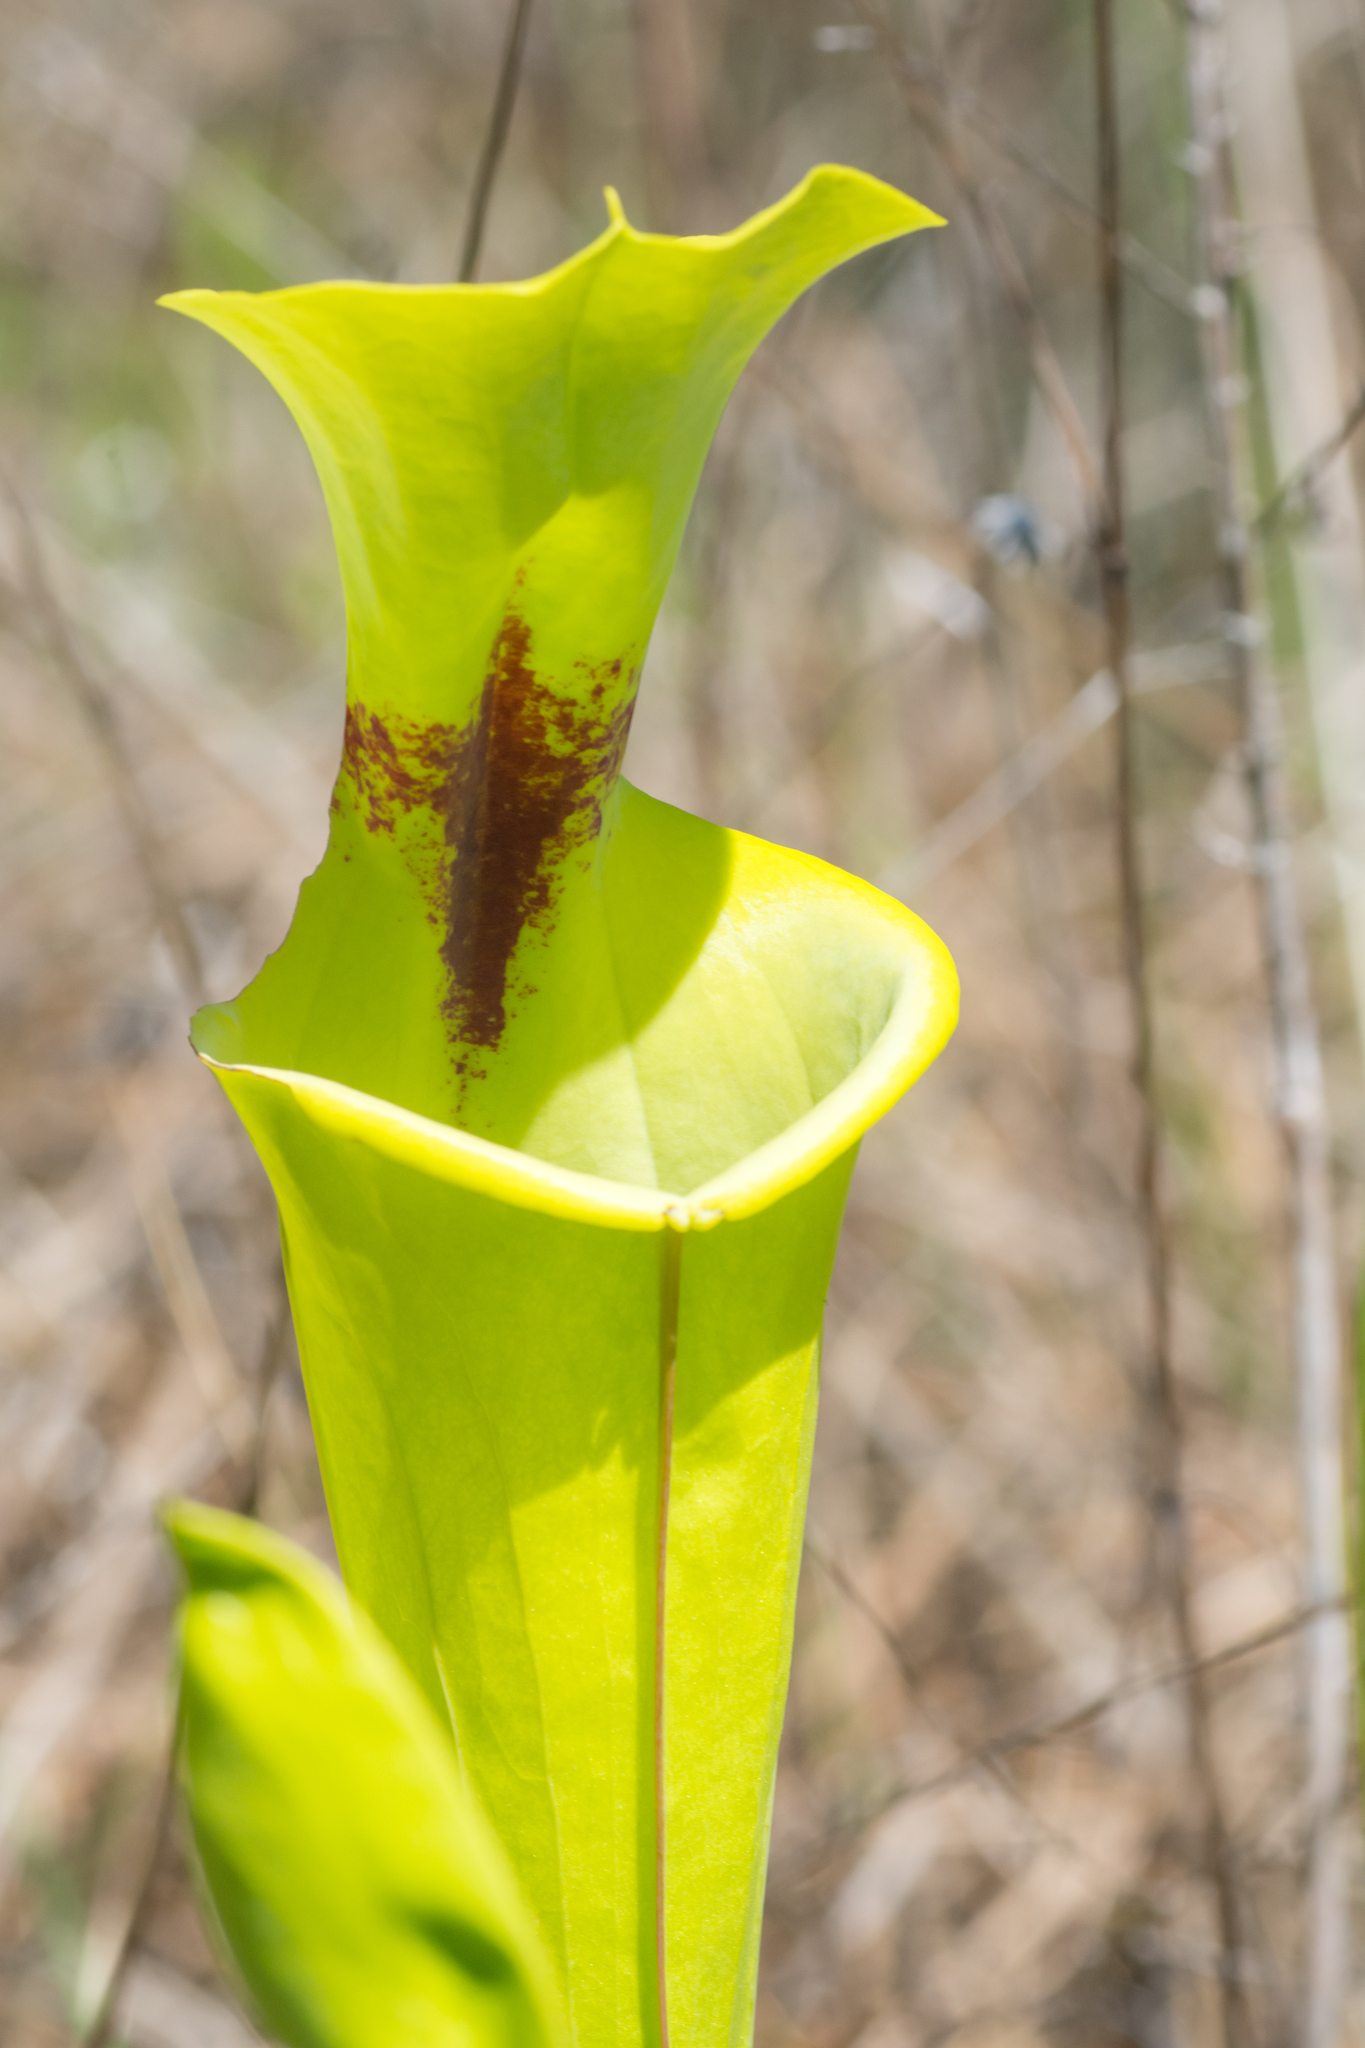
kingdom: Plantae
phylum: Tracheophyta
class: Magnoliopsida
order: Ericales
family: Sarraceniaceae
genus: Sarracenia
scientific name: Sarracenia flava
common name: Trumpets
